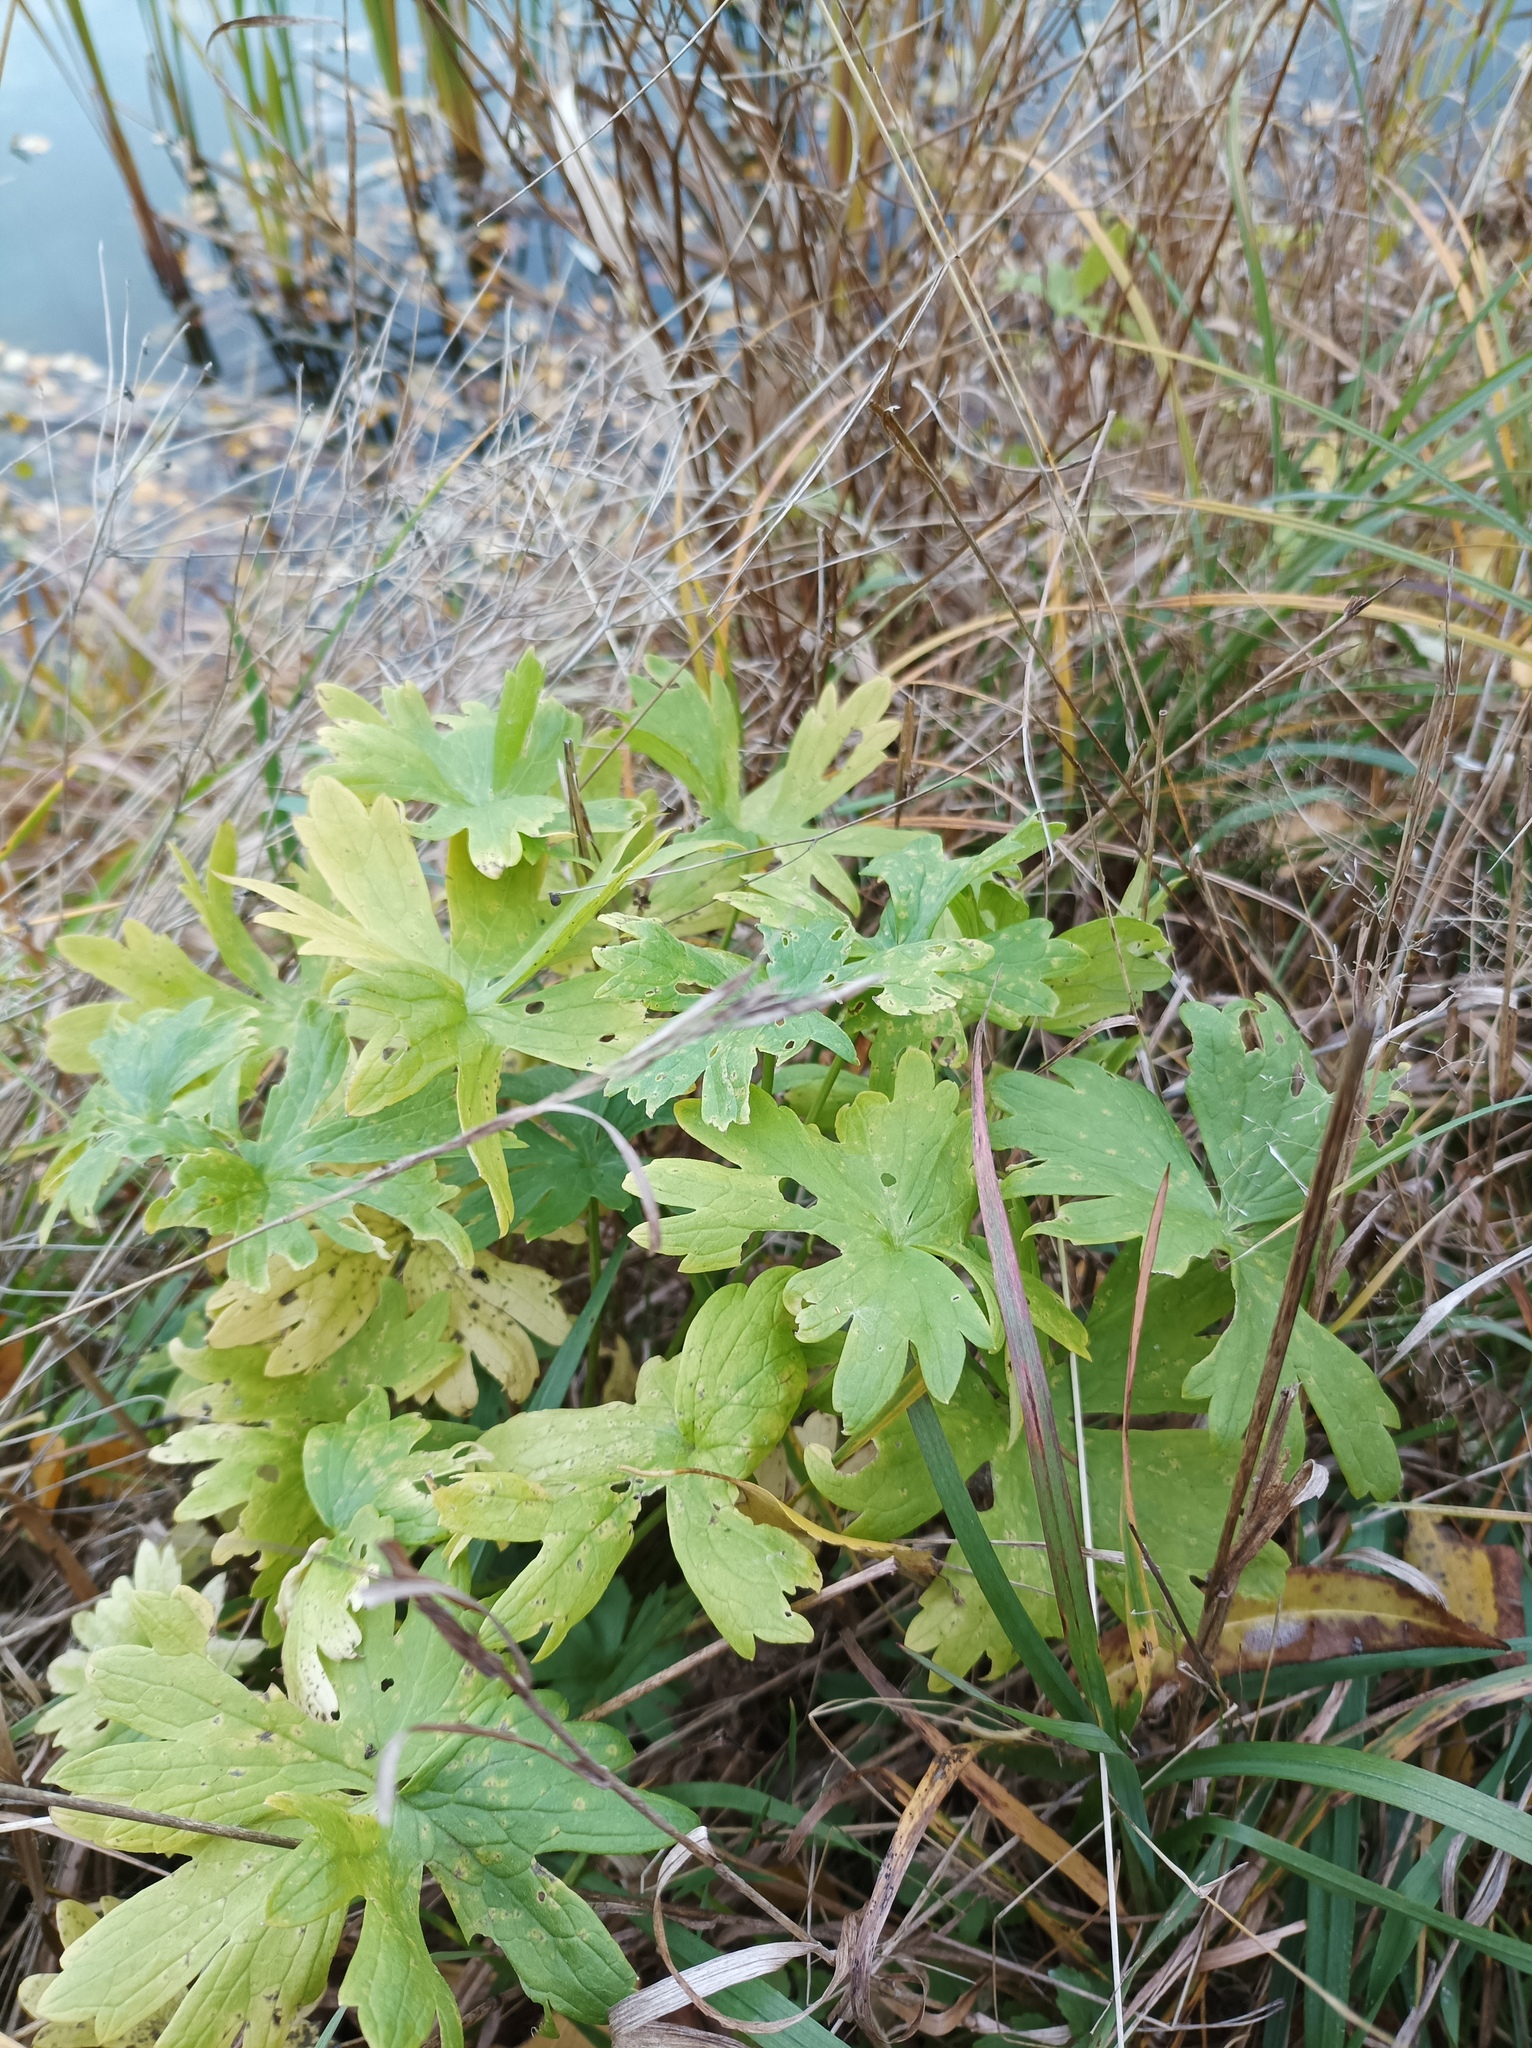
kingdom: Plantae
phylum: Tracheophyta
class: Magnoliopsida
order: Geraniales
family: Geraniaceae
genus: Geranium
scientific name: Geranium palustre
